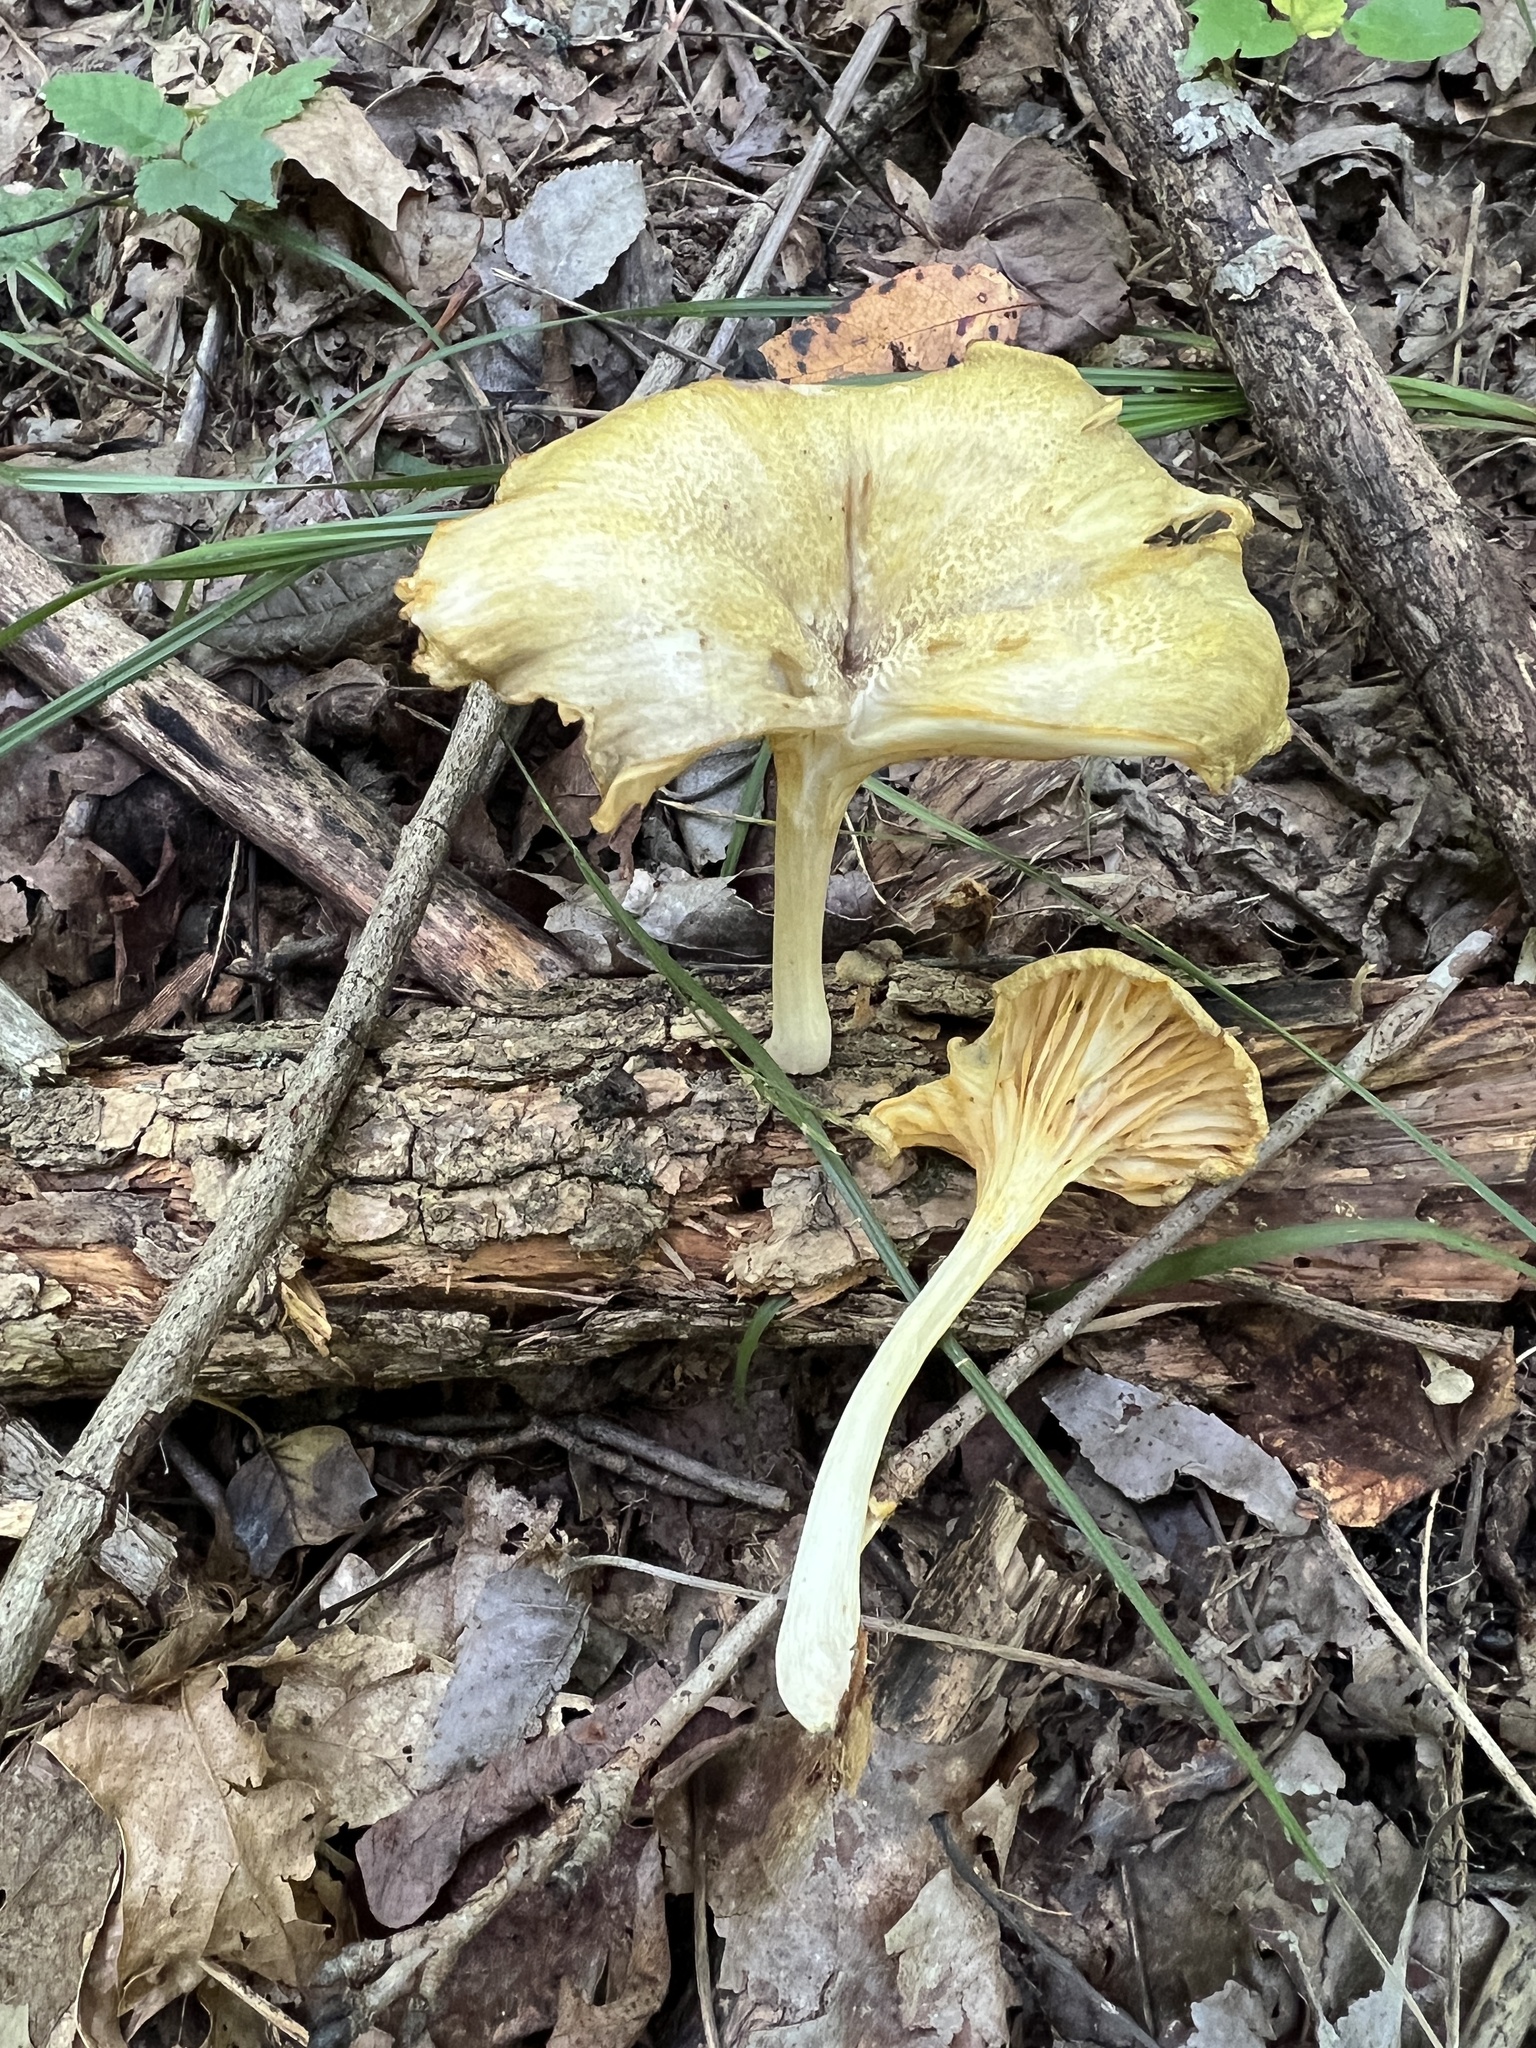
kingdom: Fungi
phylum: Basidiomycota
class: Agaricomycetes
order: Agaricales
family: Marasmiaceae
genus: Gerronema
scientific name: Gerronema strombodes
